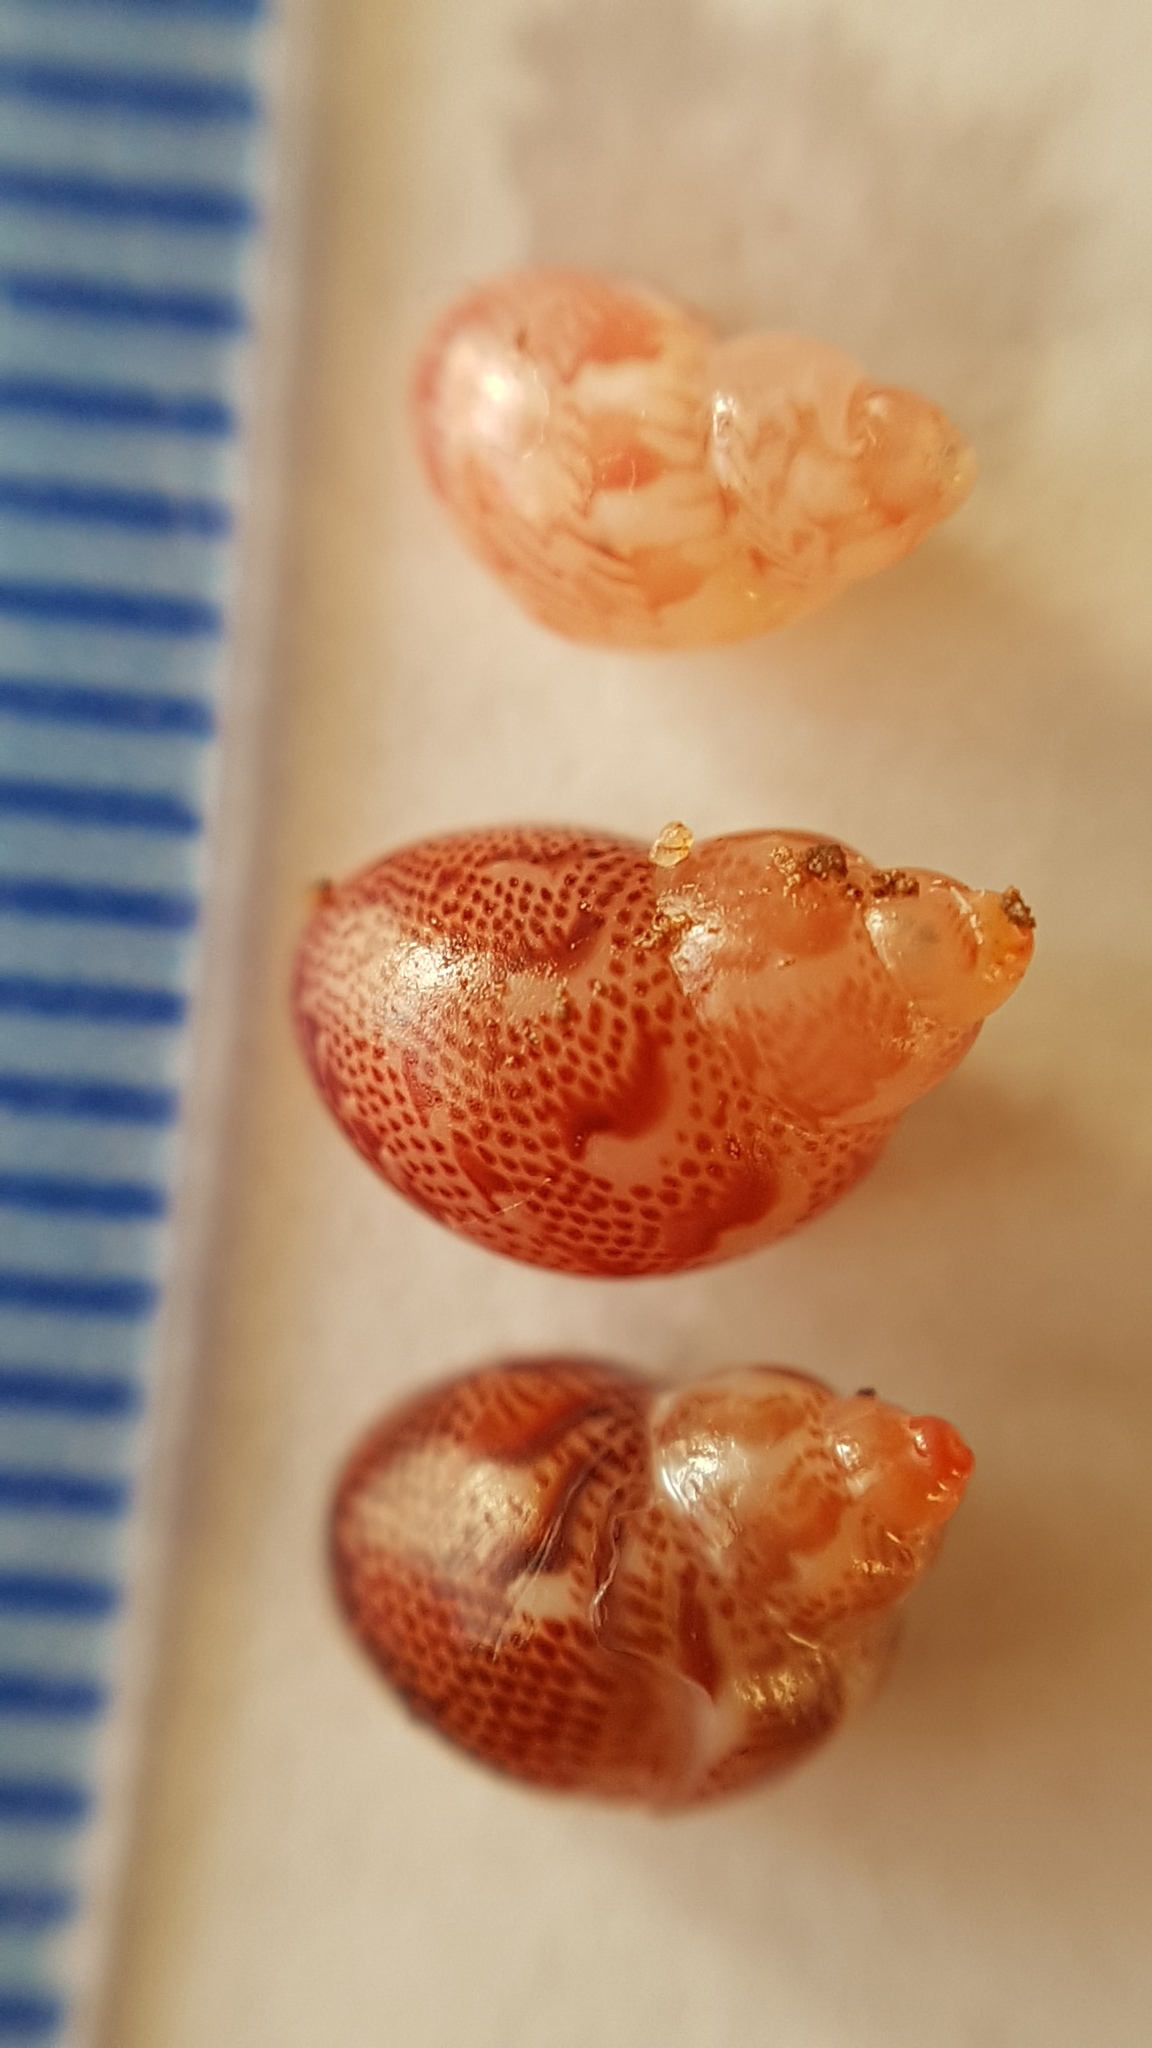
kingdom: Animalia
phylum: Mollusca
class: Gastropoda
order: Trochida
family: Phasianellidae
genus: Tricolia
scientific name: Tricolia pullus
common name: Pheasant shell
